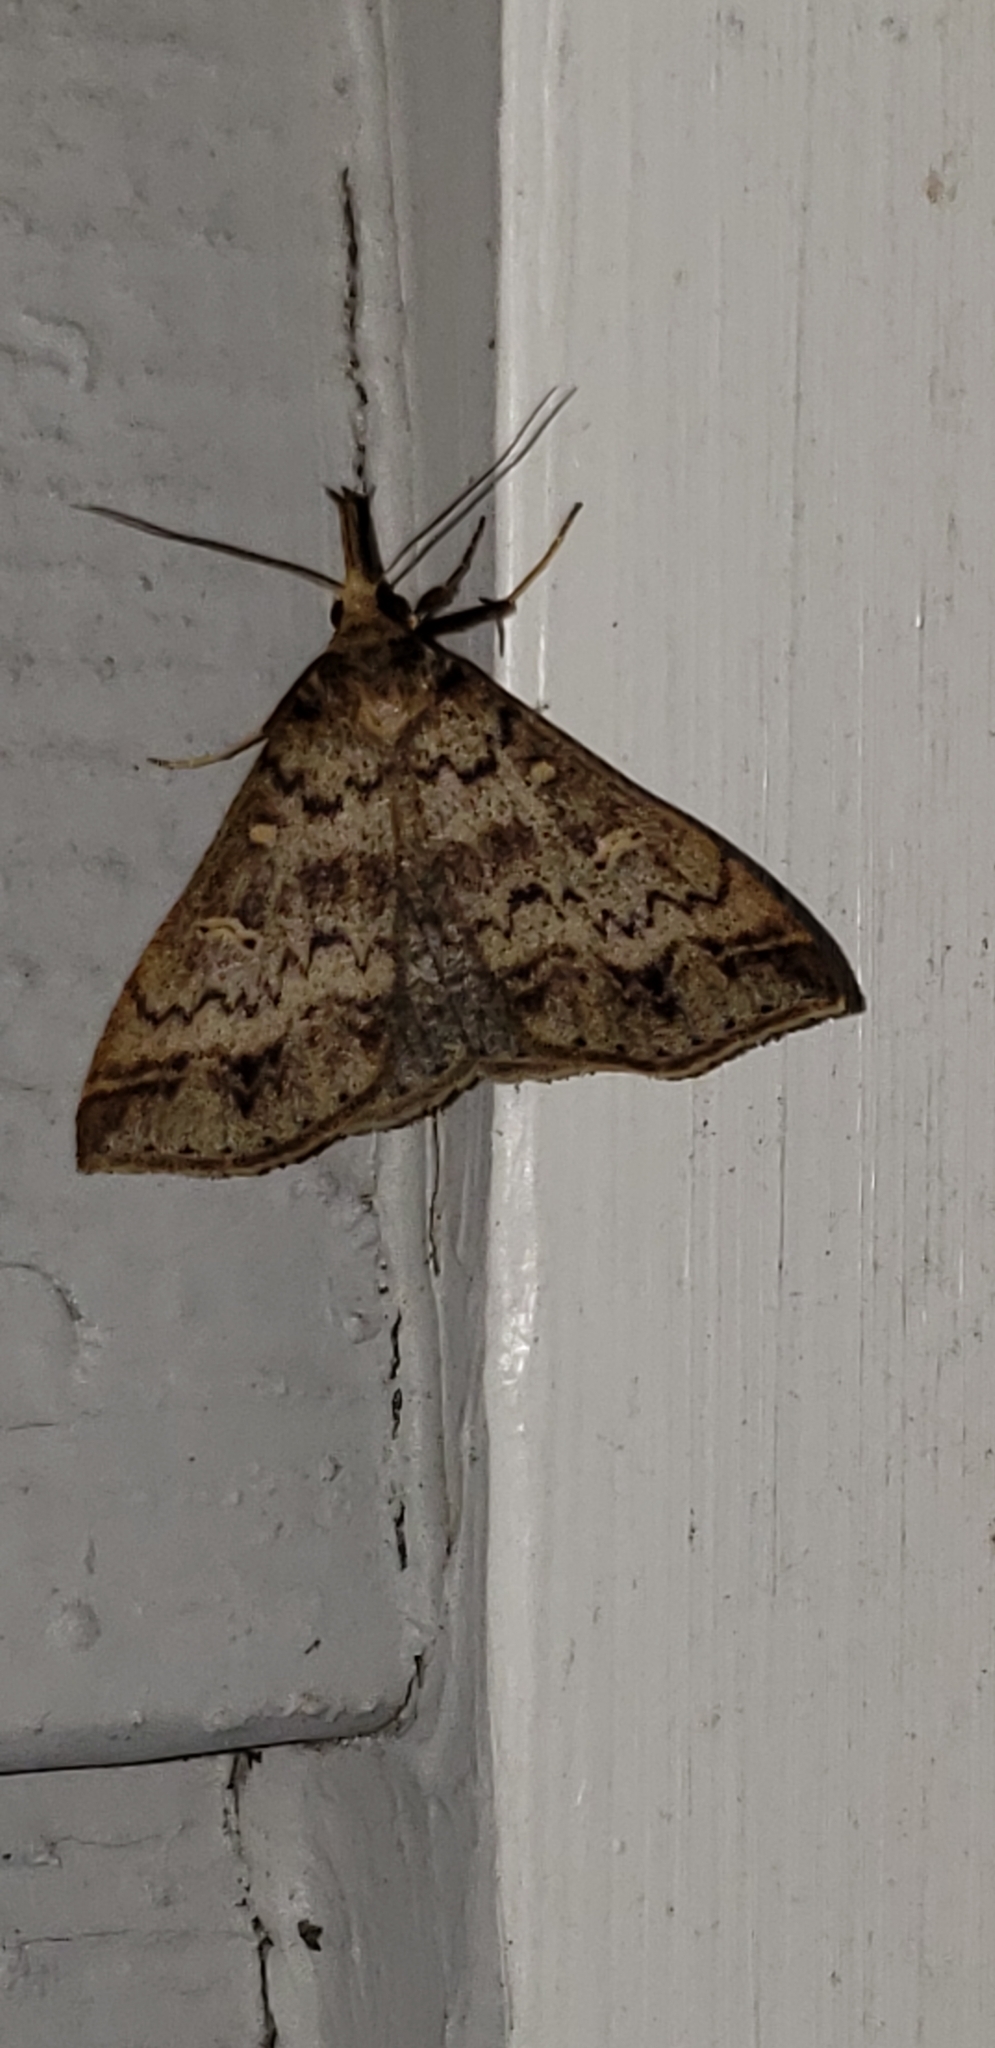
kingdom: Animalia
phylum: Arthropoda
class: Insecta
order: Lepidoptera
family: Erebidae
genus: Renia
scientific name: Renia discoloralis
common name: Discolored renia moth
